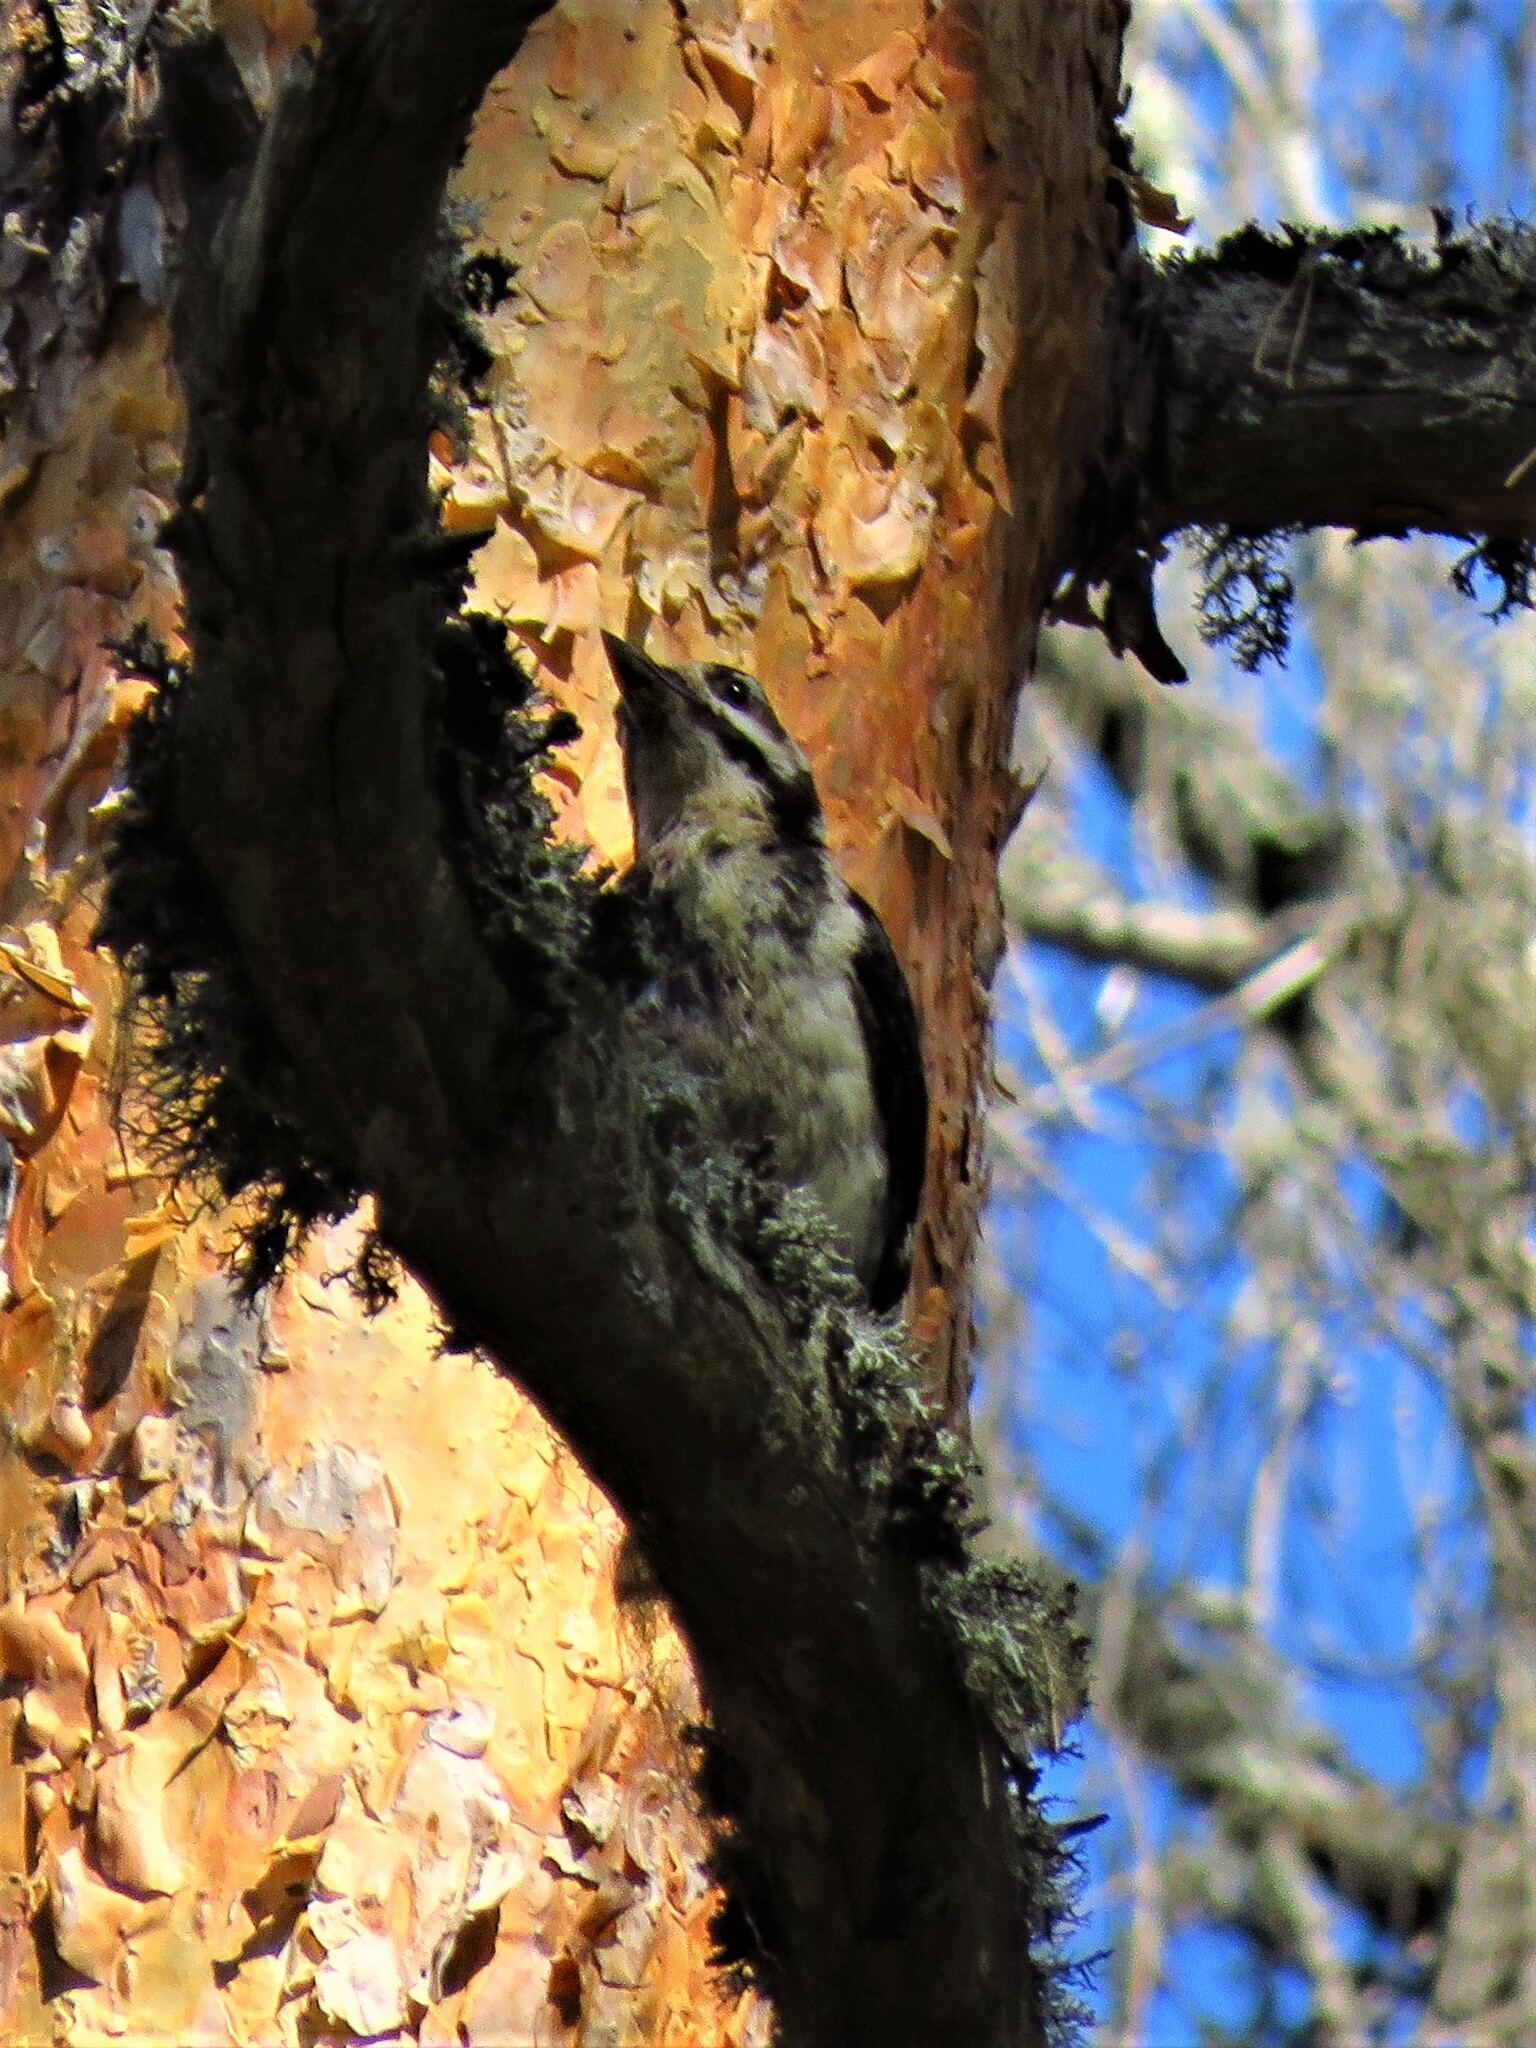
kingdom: Animalia
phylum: Chordata
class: Aves
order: Piciformes
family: Picidae
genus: Dendrocopos
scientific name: Dendrocopos major
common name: Great spotted woodpecker
